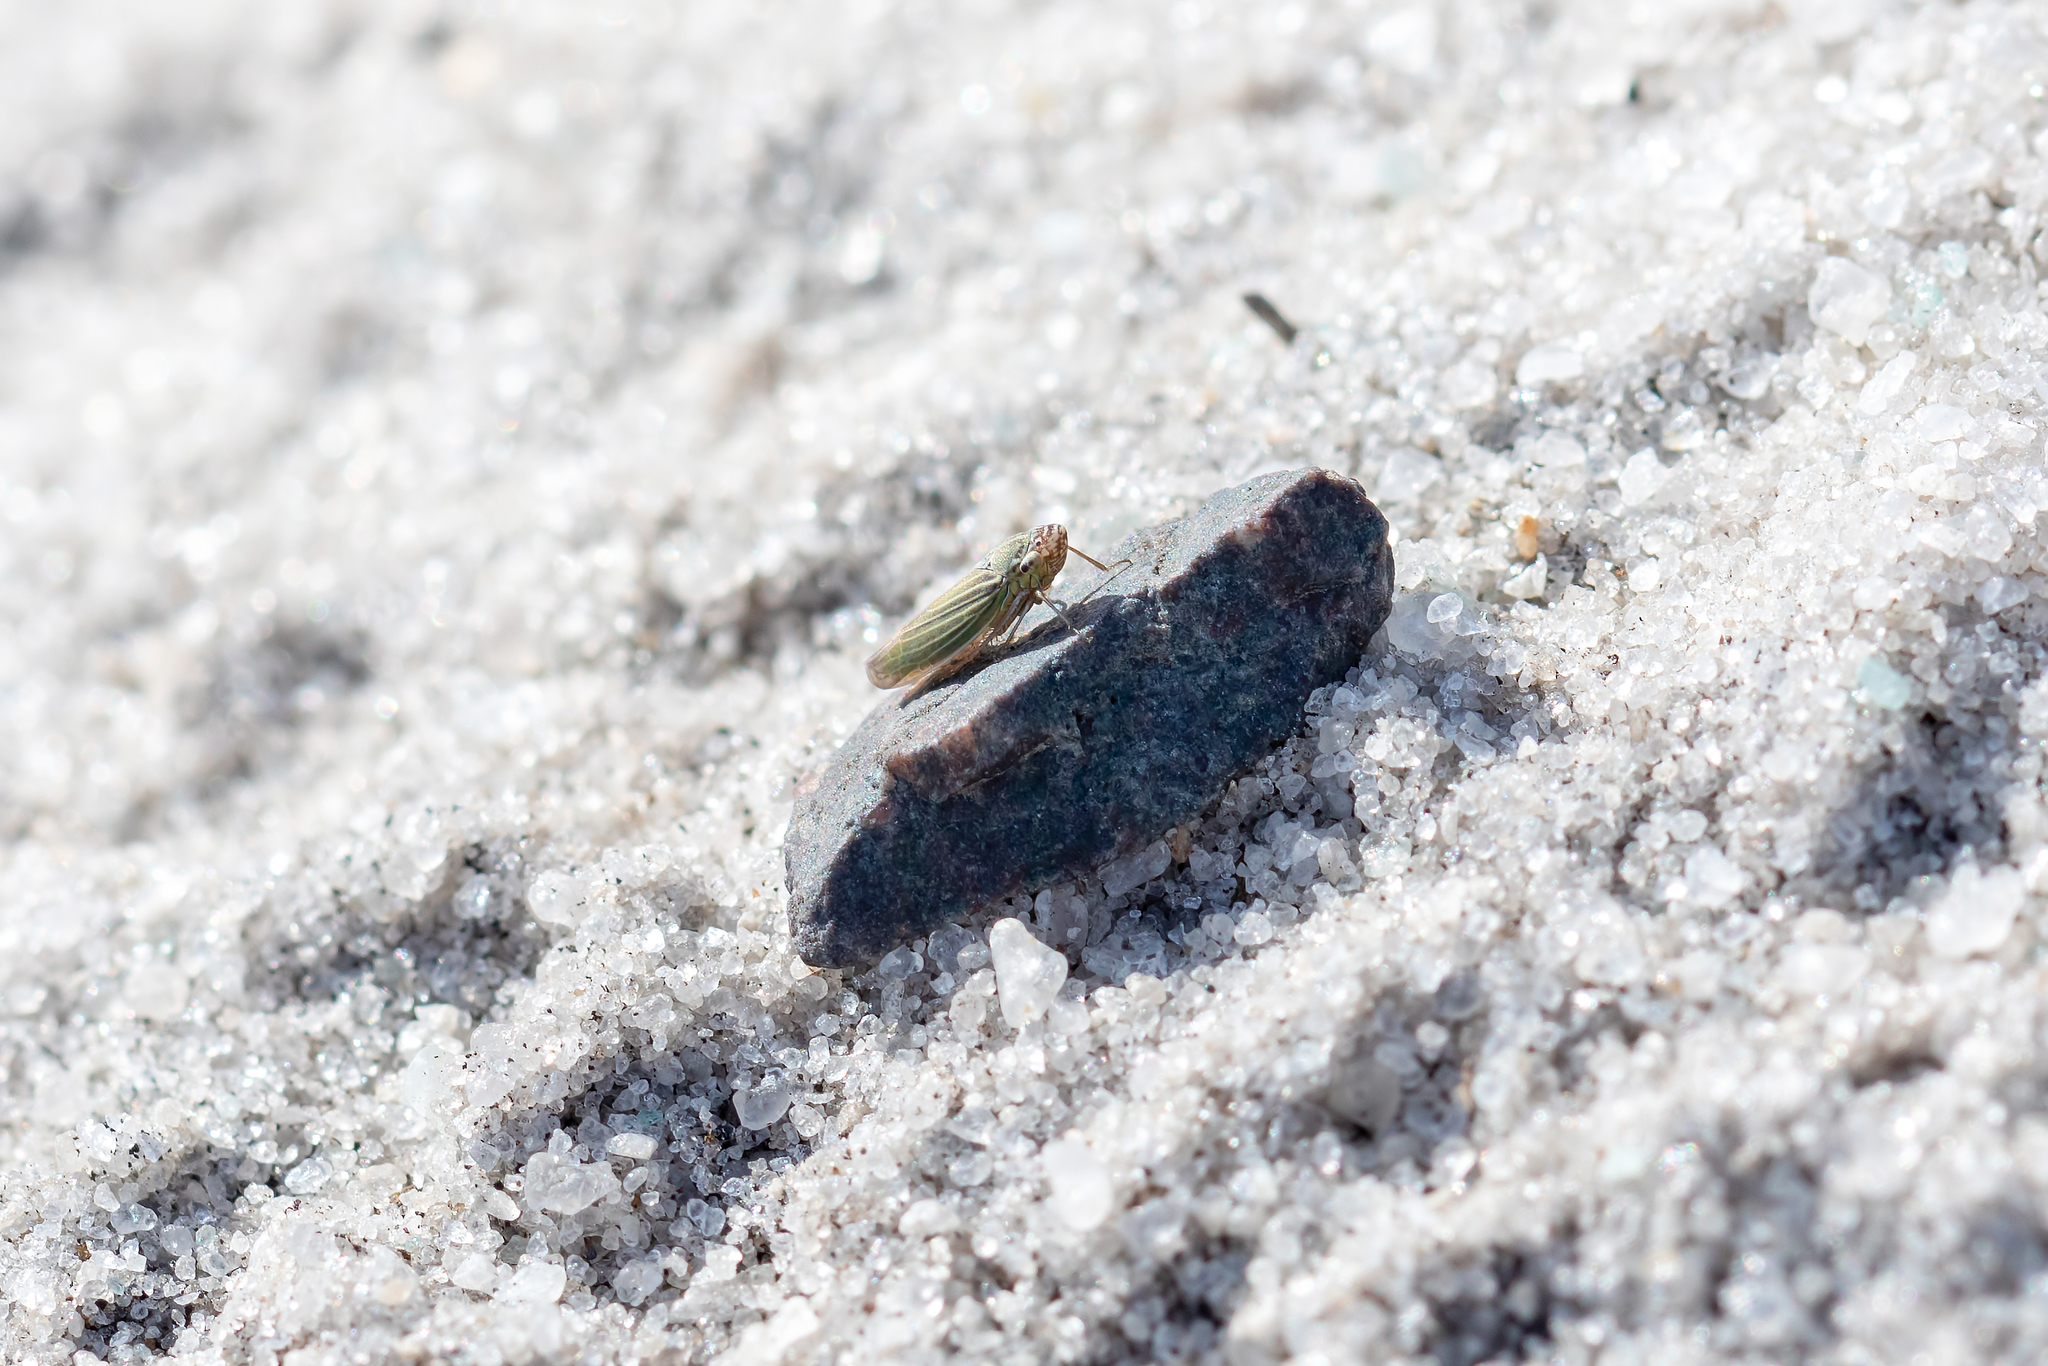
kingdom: Animalia
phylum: Arthropoda
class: Insecta
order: Hemiptera
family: Cicadellidae
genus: Xyphon
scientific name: Xyphon reticulatum
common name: Planthopper
